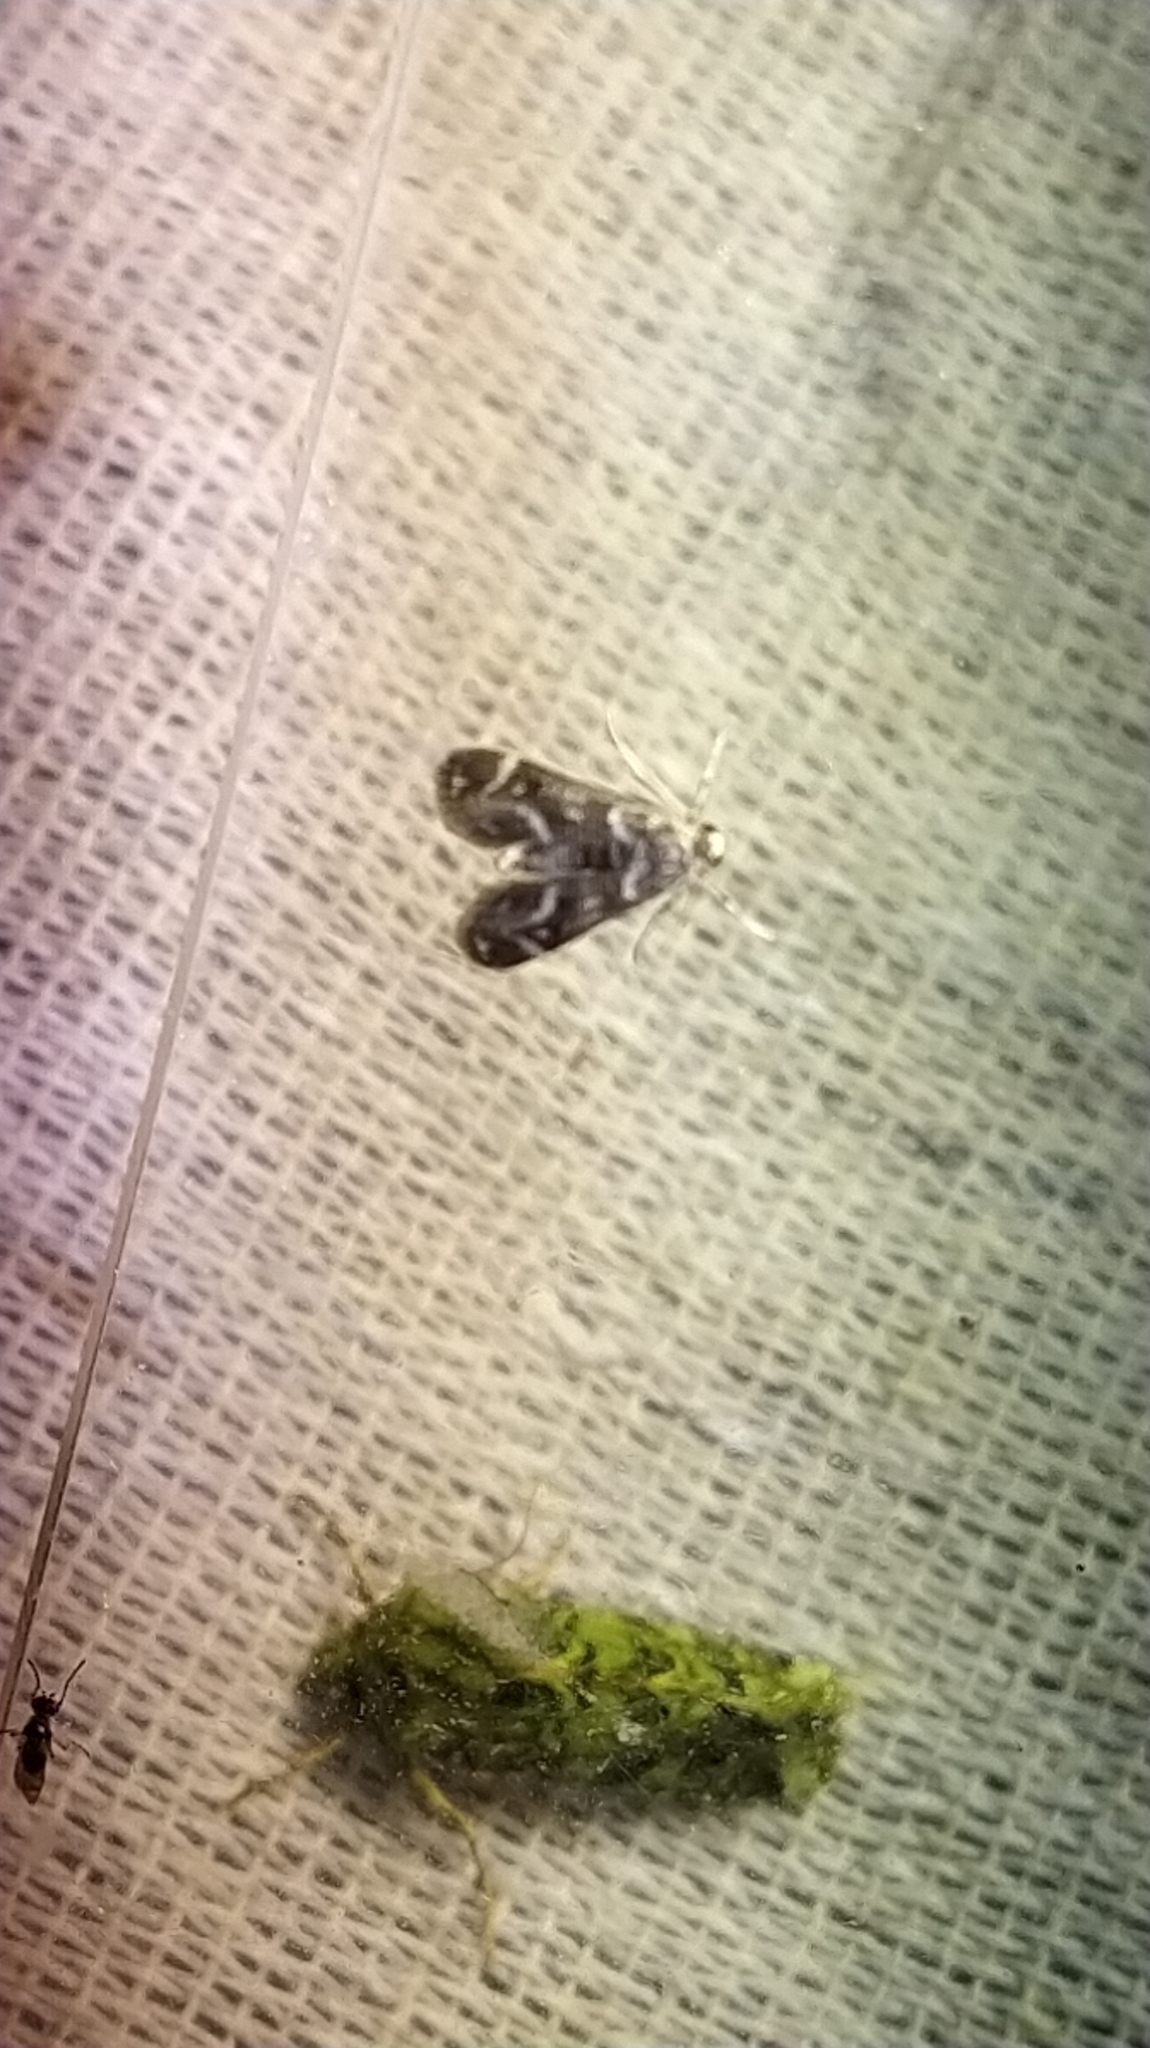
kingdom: Animalia
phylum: Arthropoda
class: Insecta
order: Lepidoptera
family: Crambidae
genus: Hygraula
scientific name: Hygraula nitens
